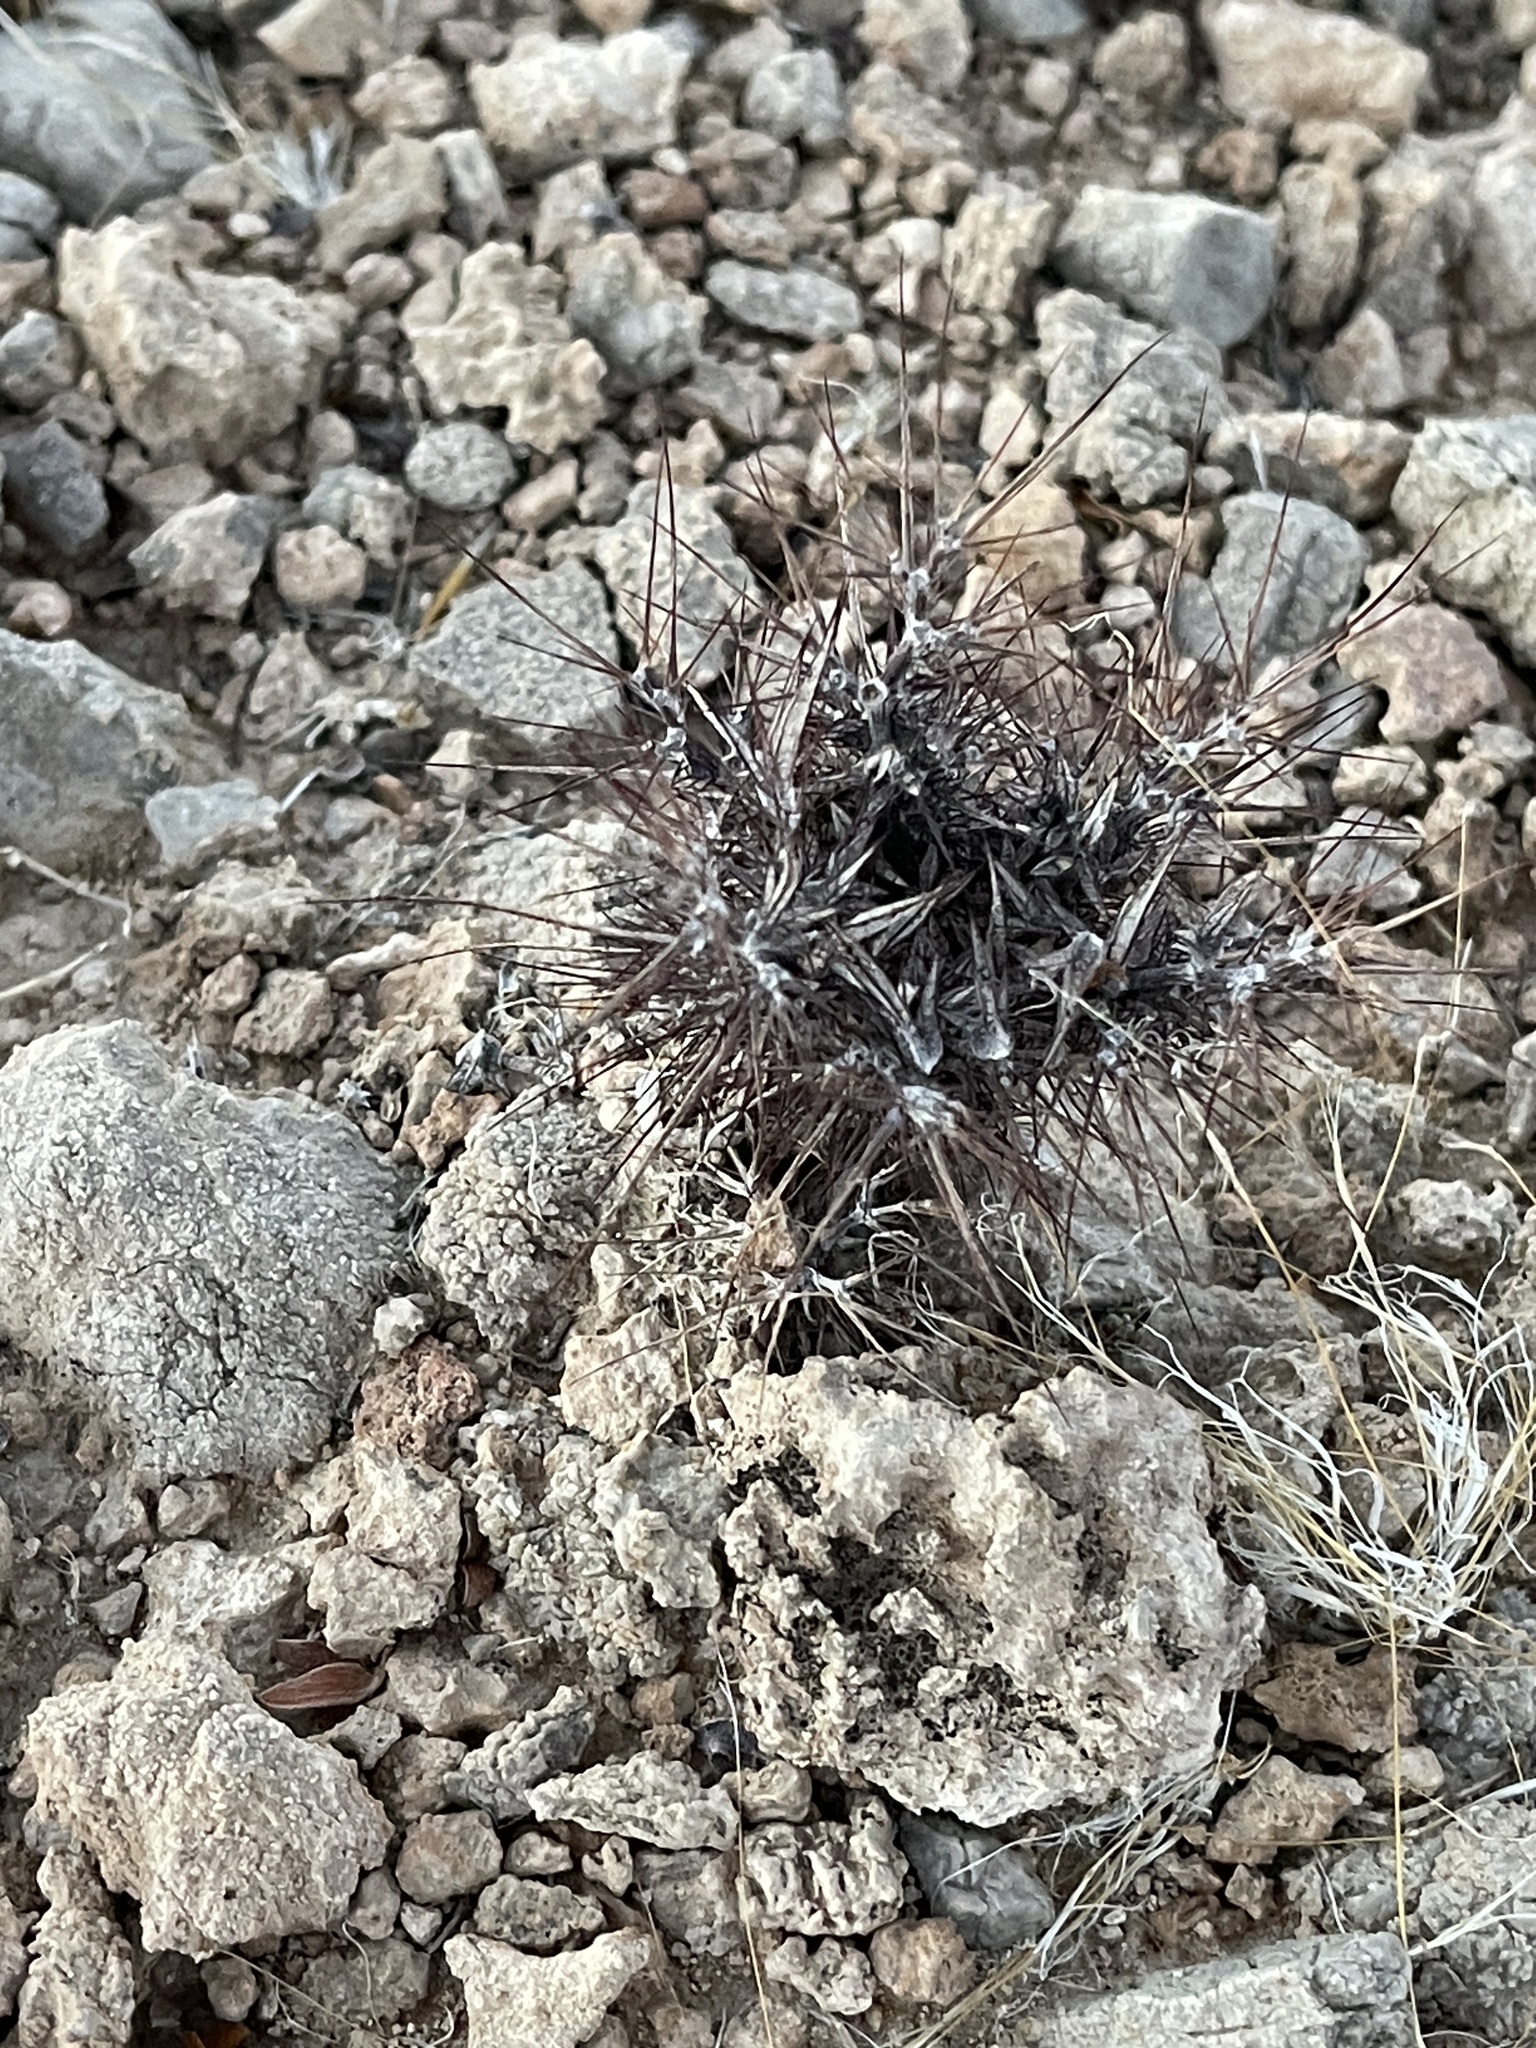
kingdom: Plantae
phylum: Tracheophyta
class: Magnoliopsida
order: Caryophyllales
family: Polygonaceae
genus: Chorizanthe
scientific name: Chorizanthe rigida
